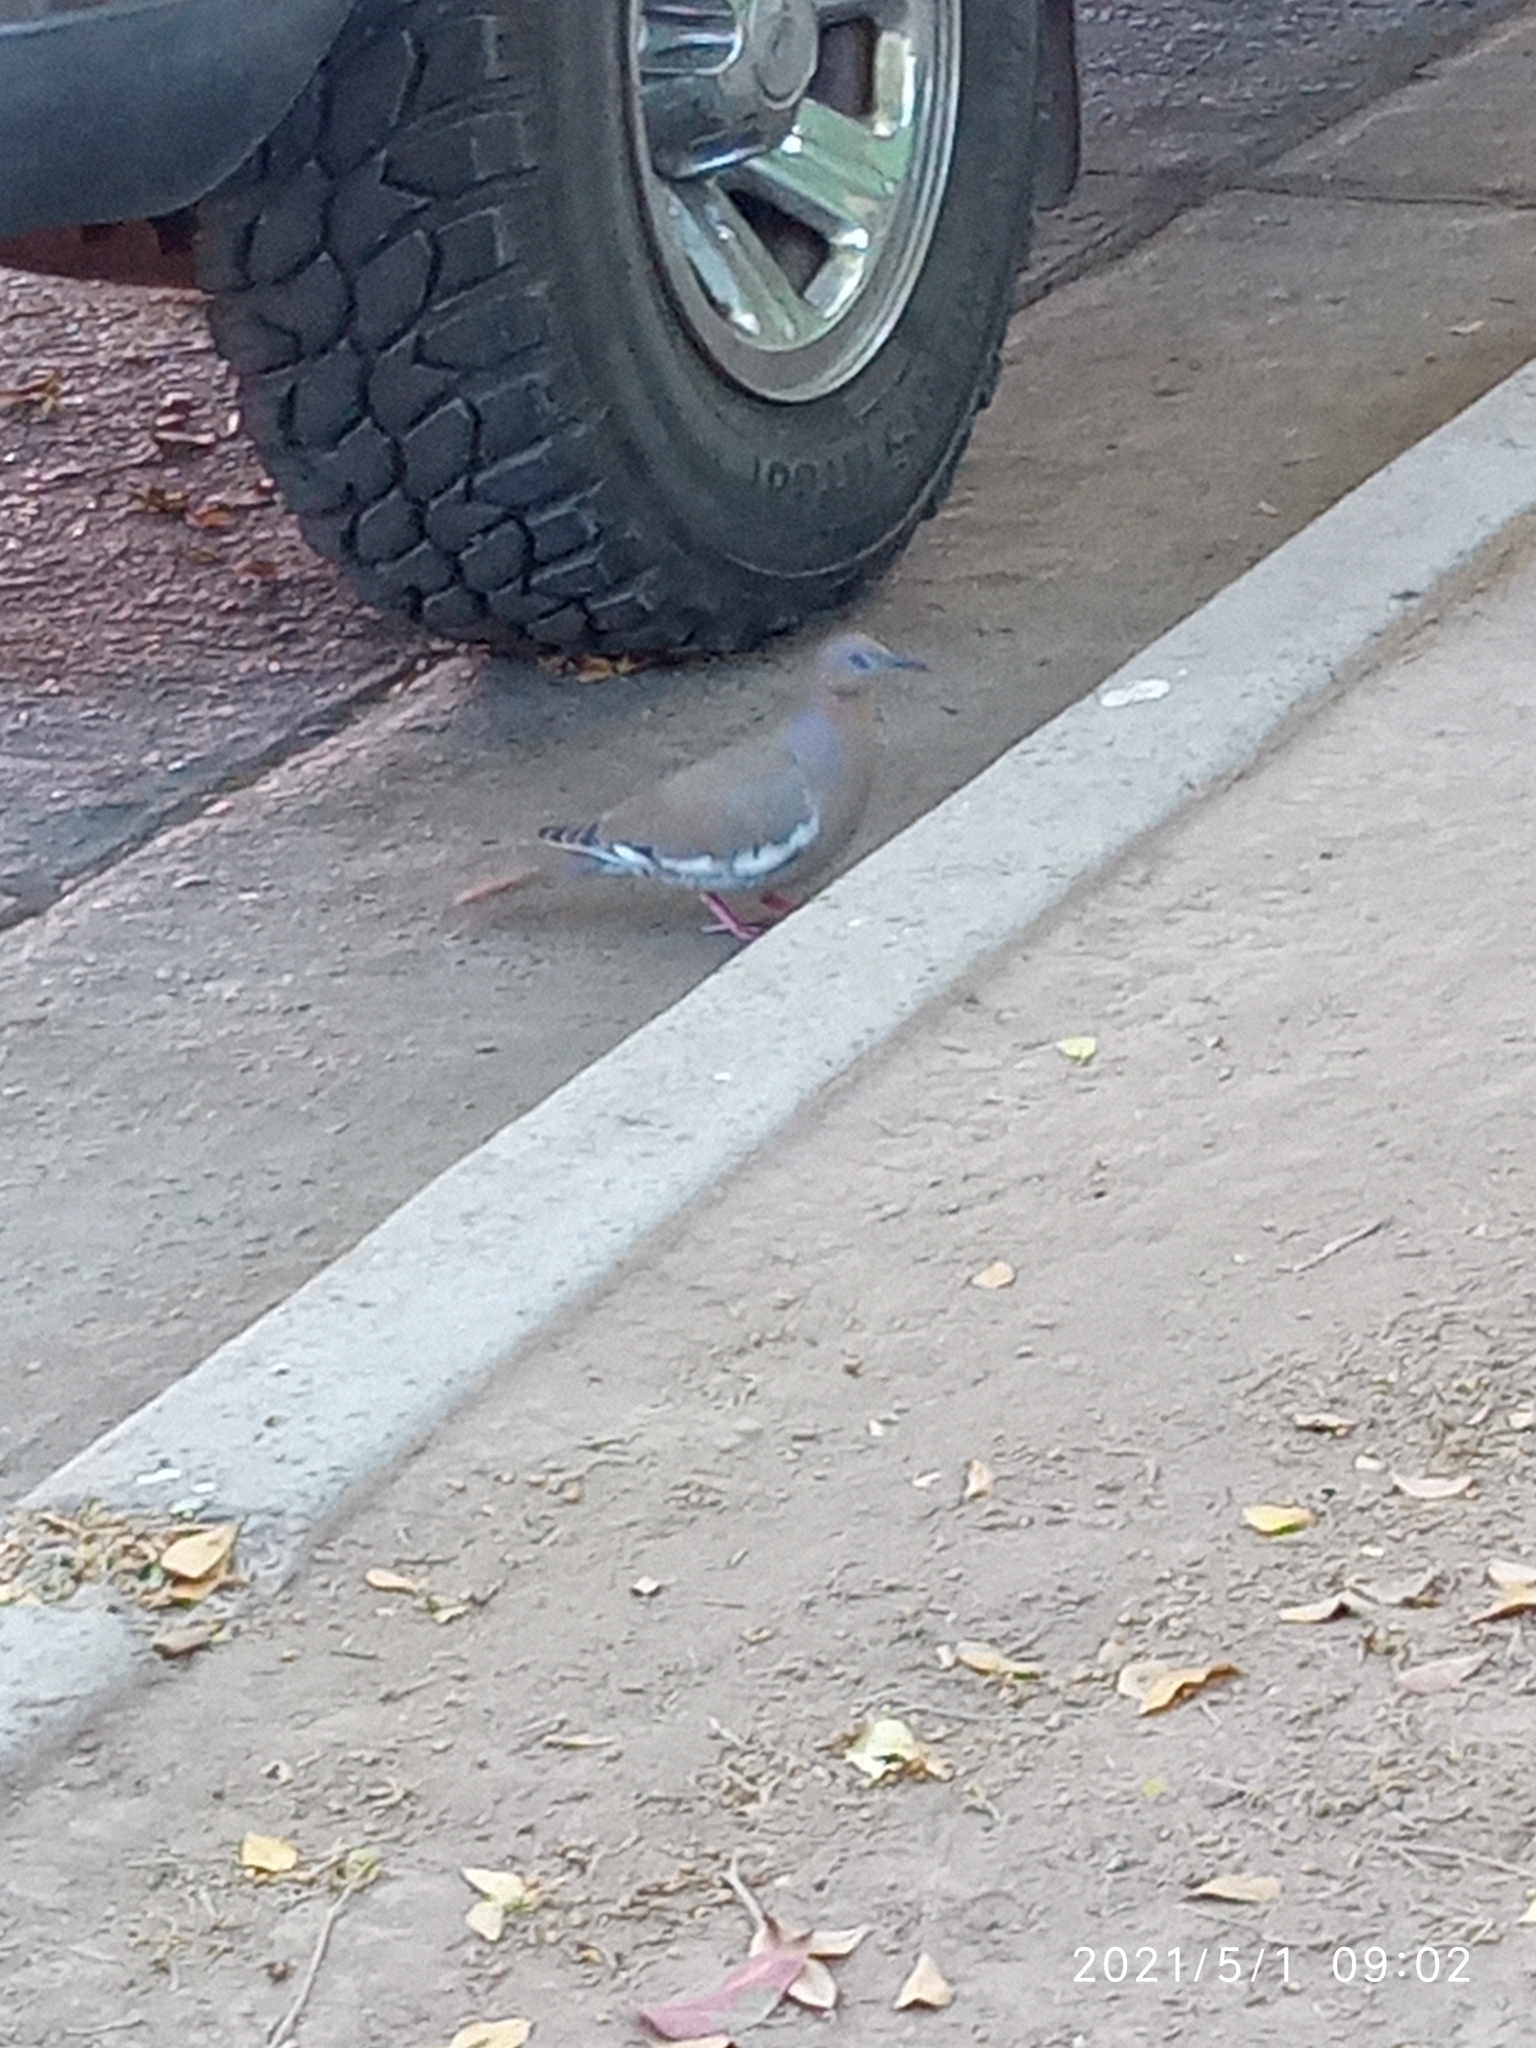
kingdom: Animalia
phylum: Chordata
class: Aves
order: Columbiformes
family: Columbidae
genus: Zenaida
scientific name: Zenaida asiatica
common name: White-winged dove
